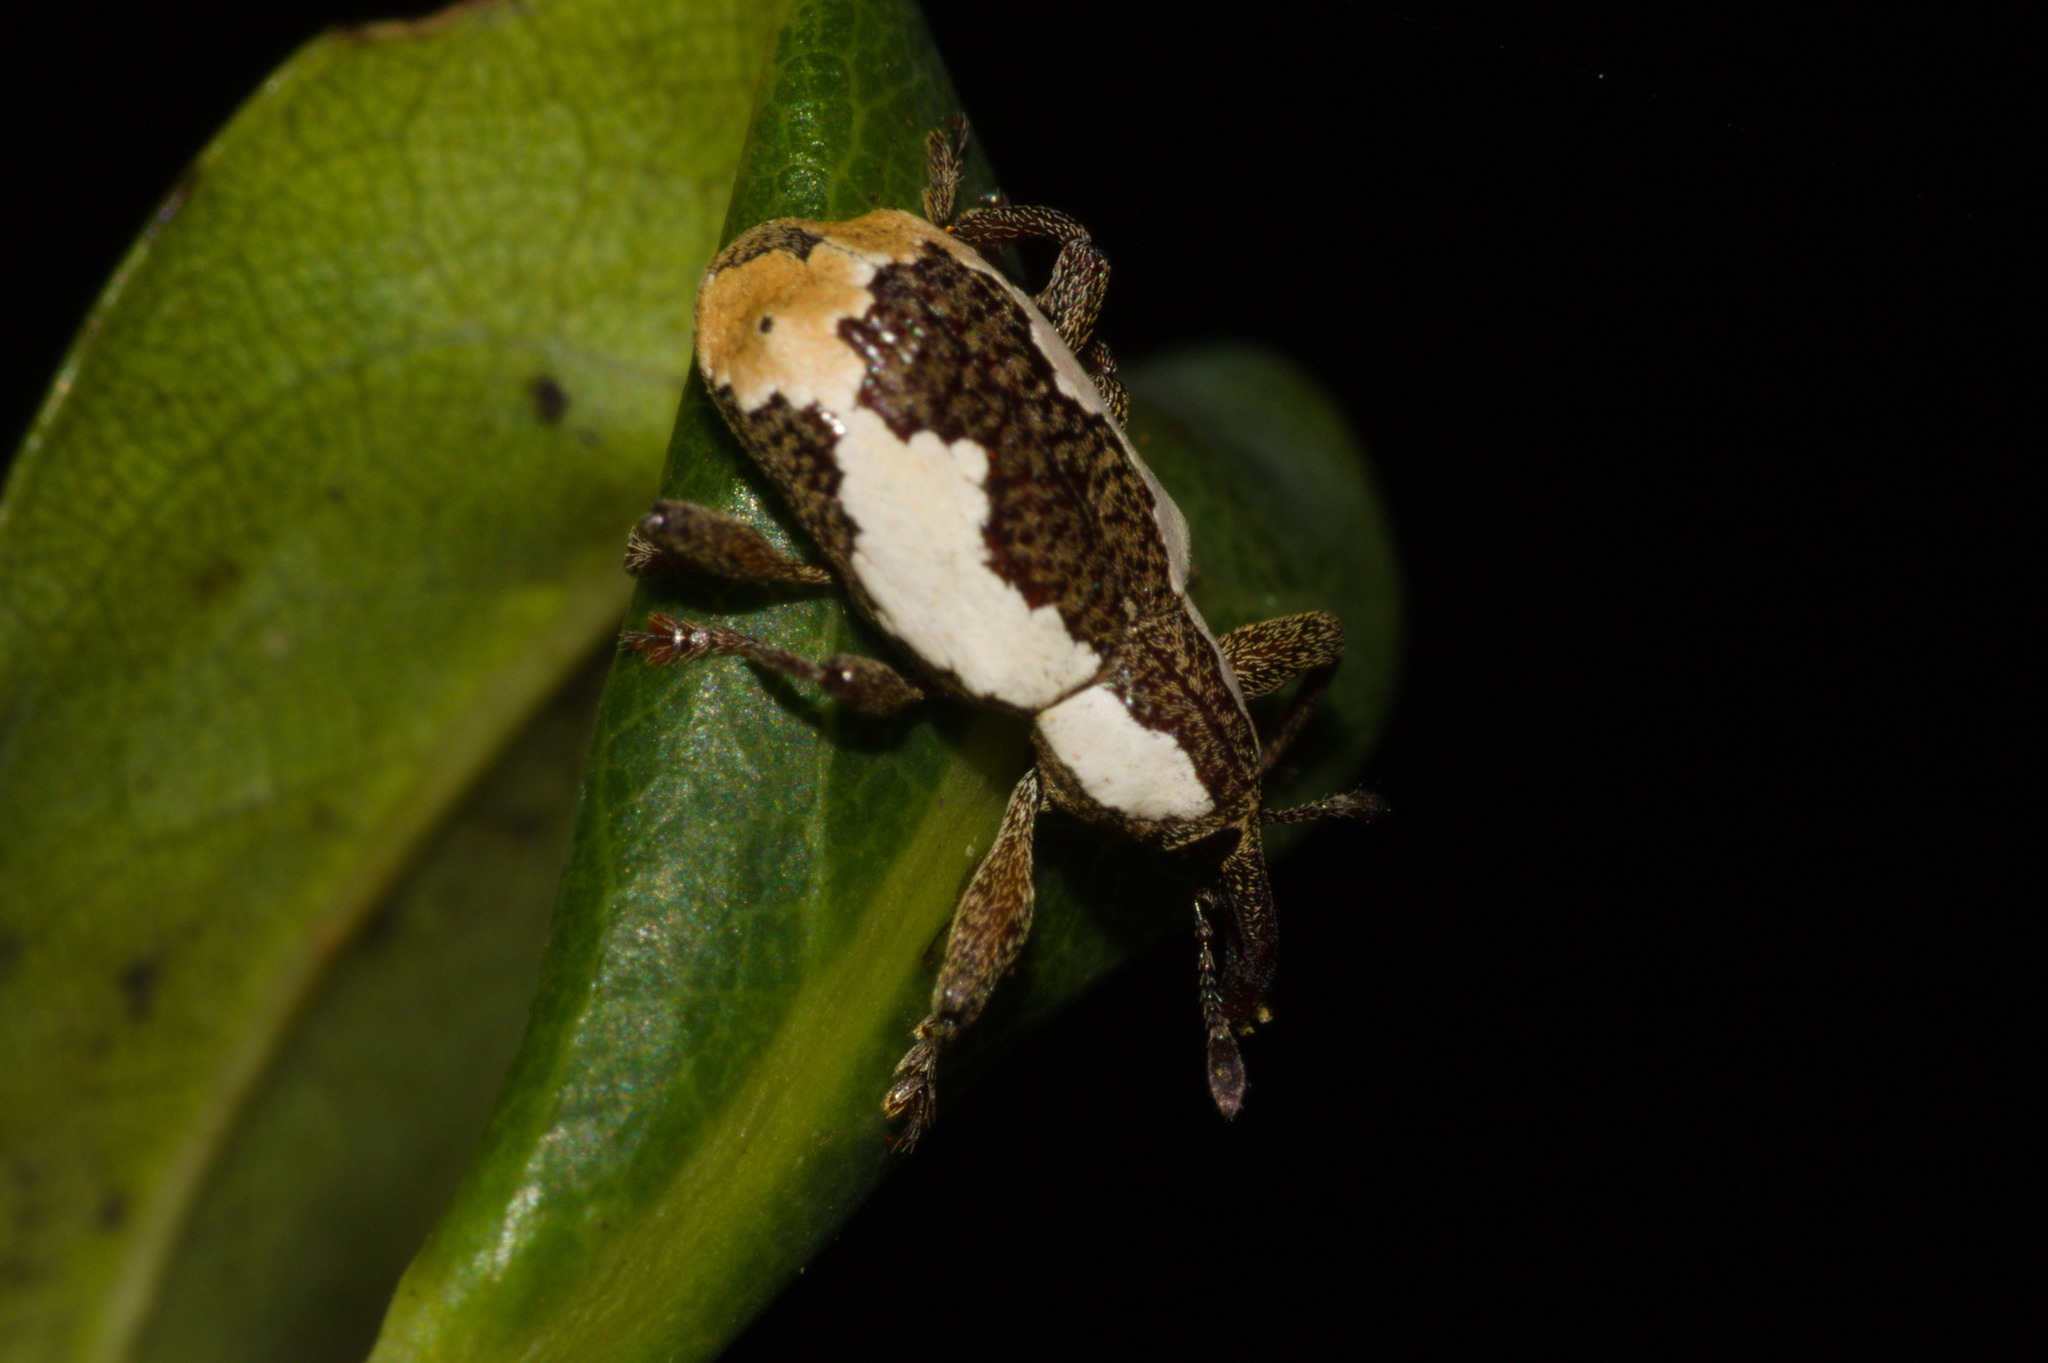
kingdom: Animalia
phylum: Arthropoda
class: Insecta
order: Coleoptera
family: Curculionidae
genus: Heilipus
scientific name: Heilipus draco
